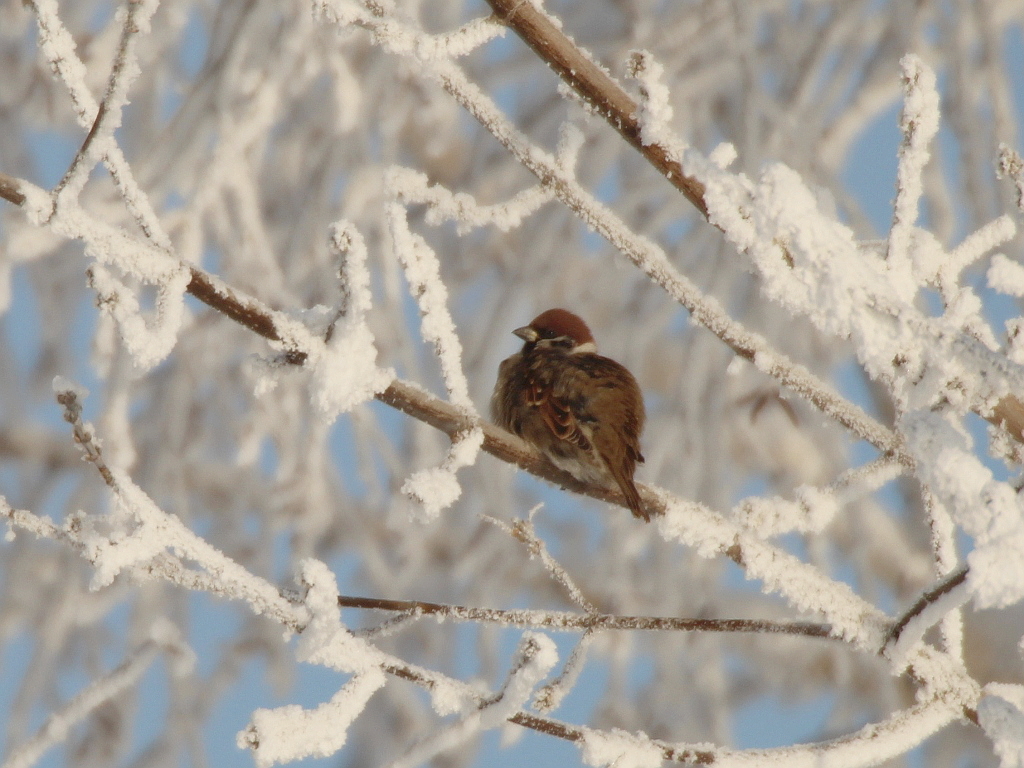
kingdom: Animalia
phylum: Chordata
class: Aves
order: Passeriformes
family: Passeridae
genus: Passer
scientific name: Passer montanus
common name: Eurasian tree sparrow
